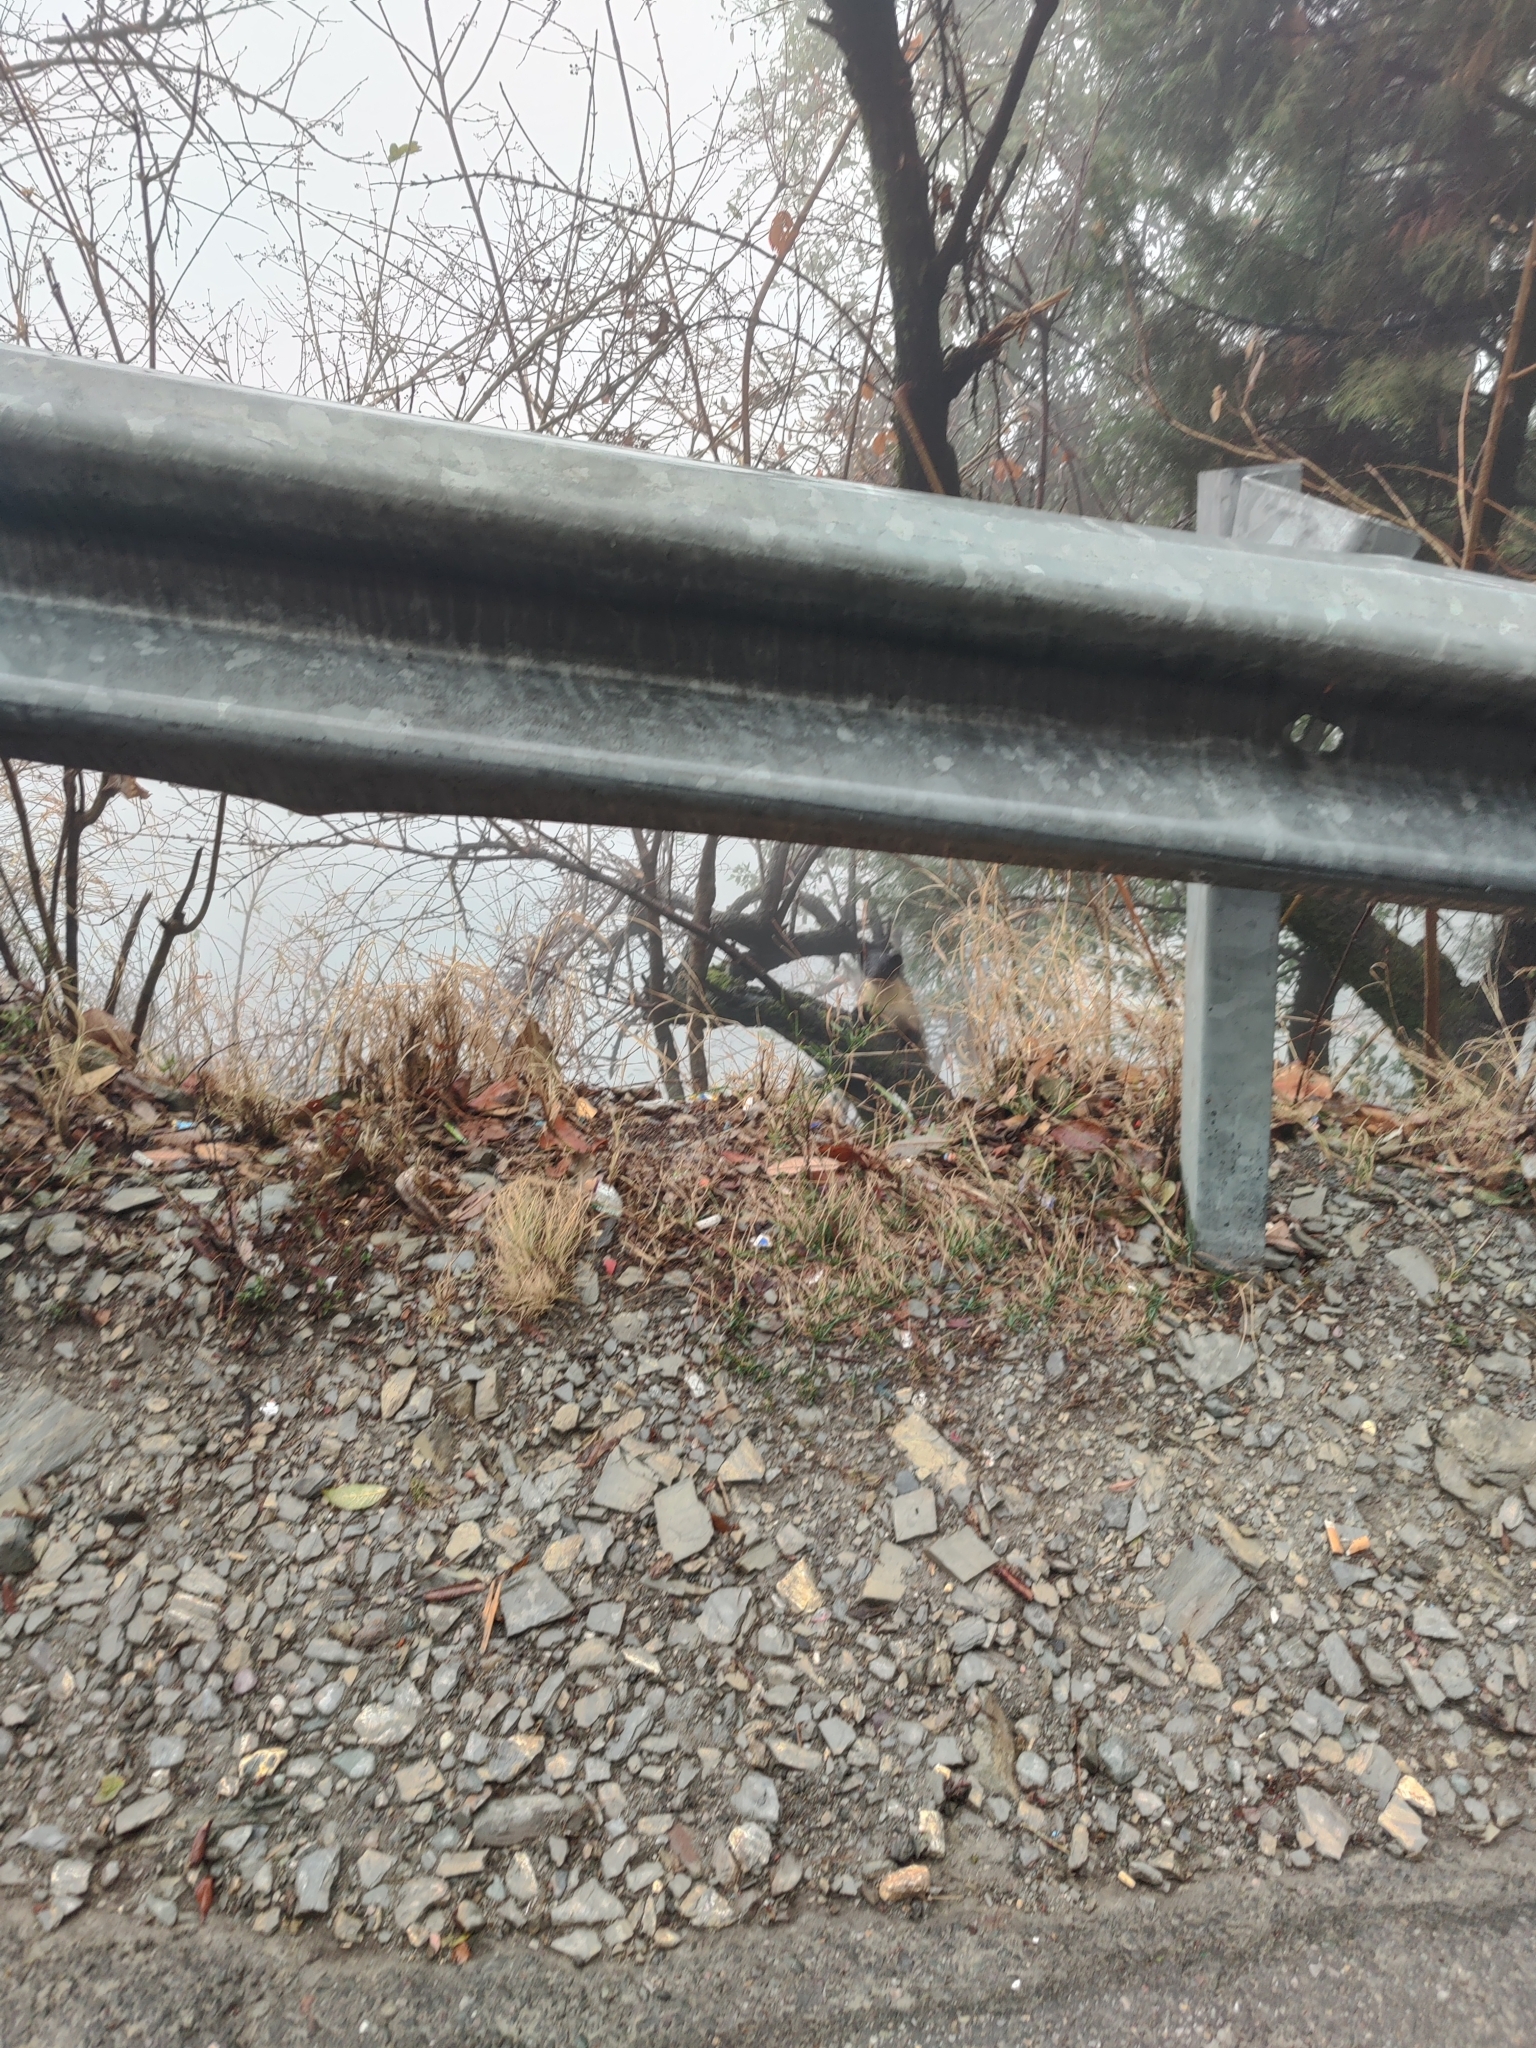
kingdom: Animalia
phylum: Chordata
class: Mammalia
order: Carnivora
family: Mustelidae
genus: Martes
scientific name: Martes flavigula
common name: Yellow-throated marten
